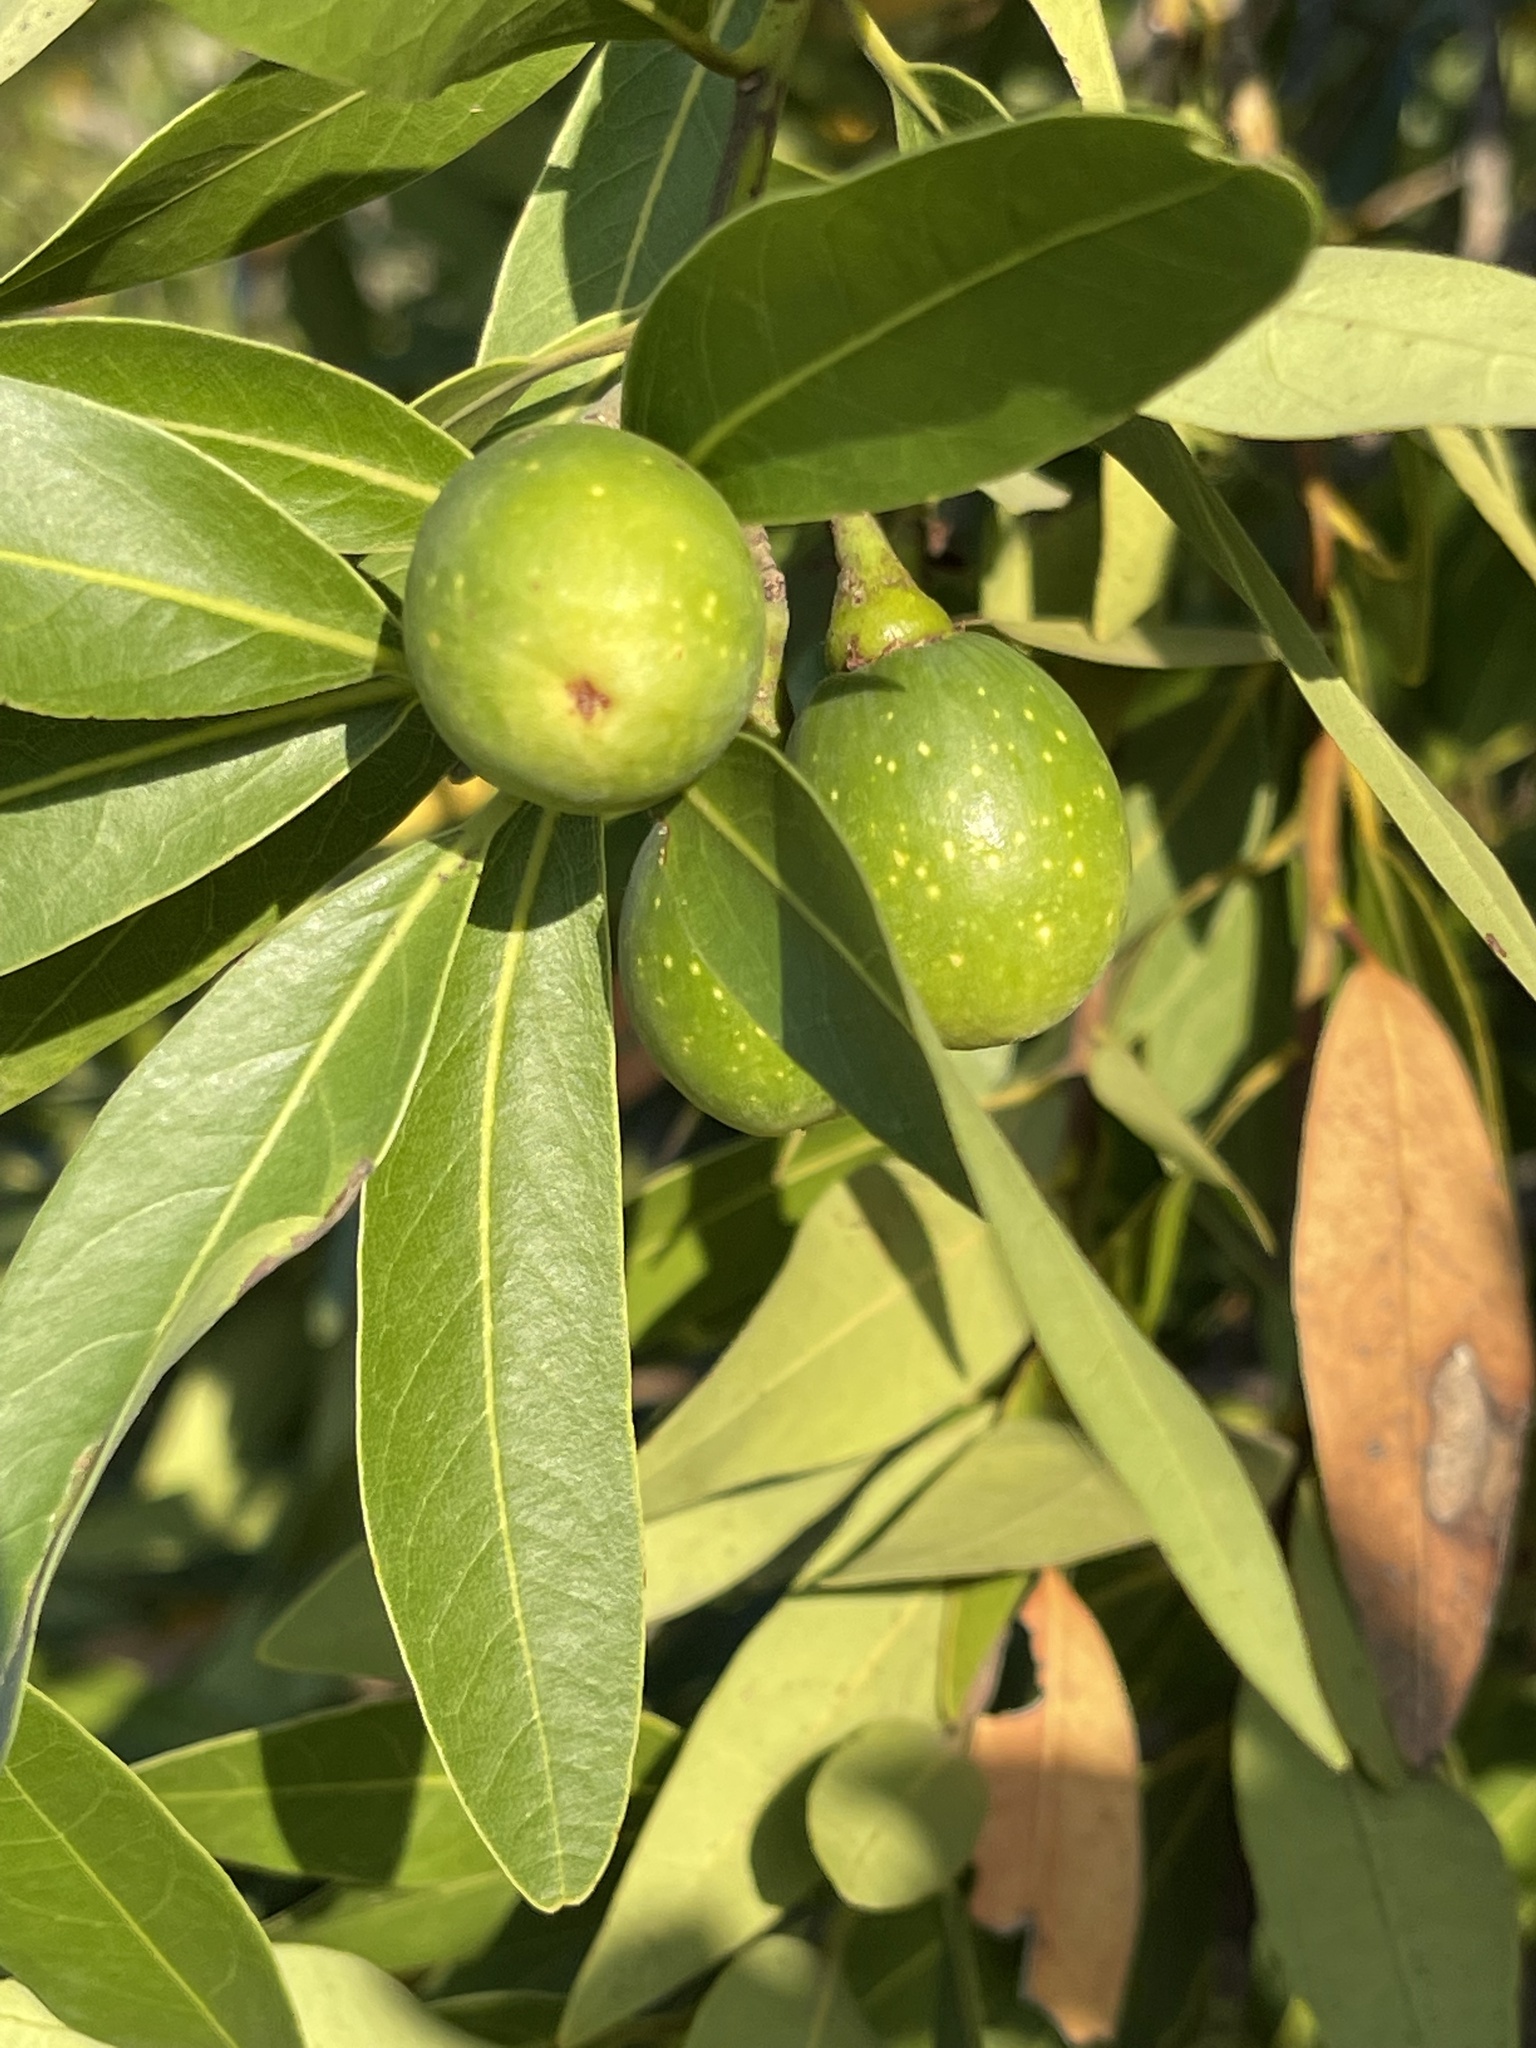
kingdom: Plantae
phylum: Tracheophyta
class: Magnoliopsida
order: Laurales
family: Lauraceae
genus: Umbellularia
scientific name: Umbellularia californica
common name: California bay
